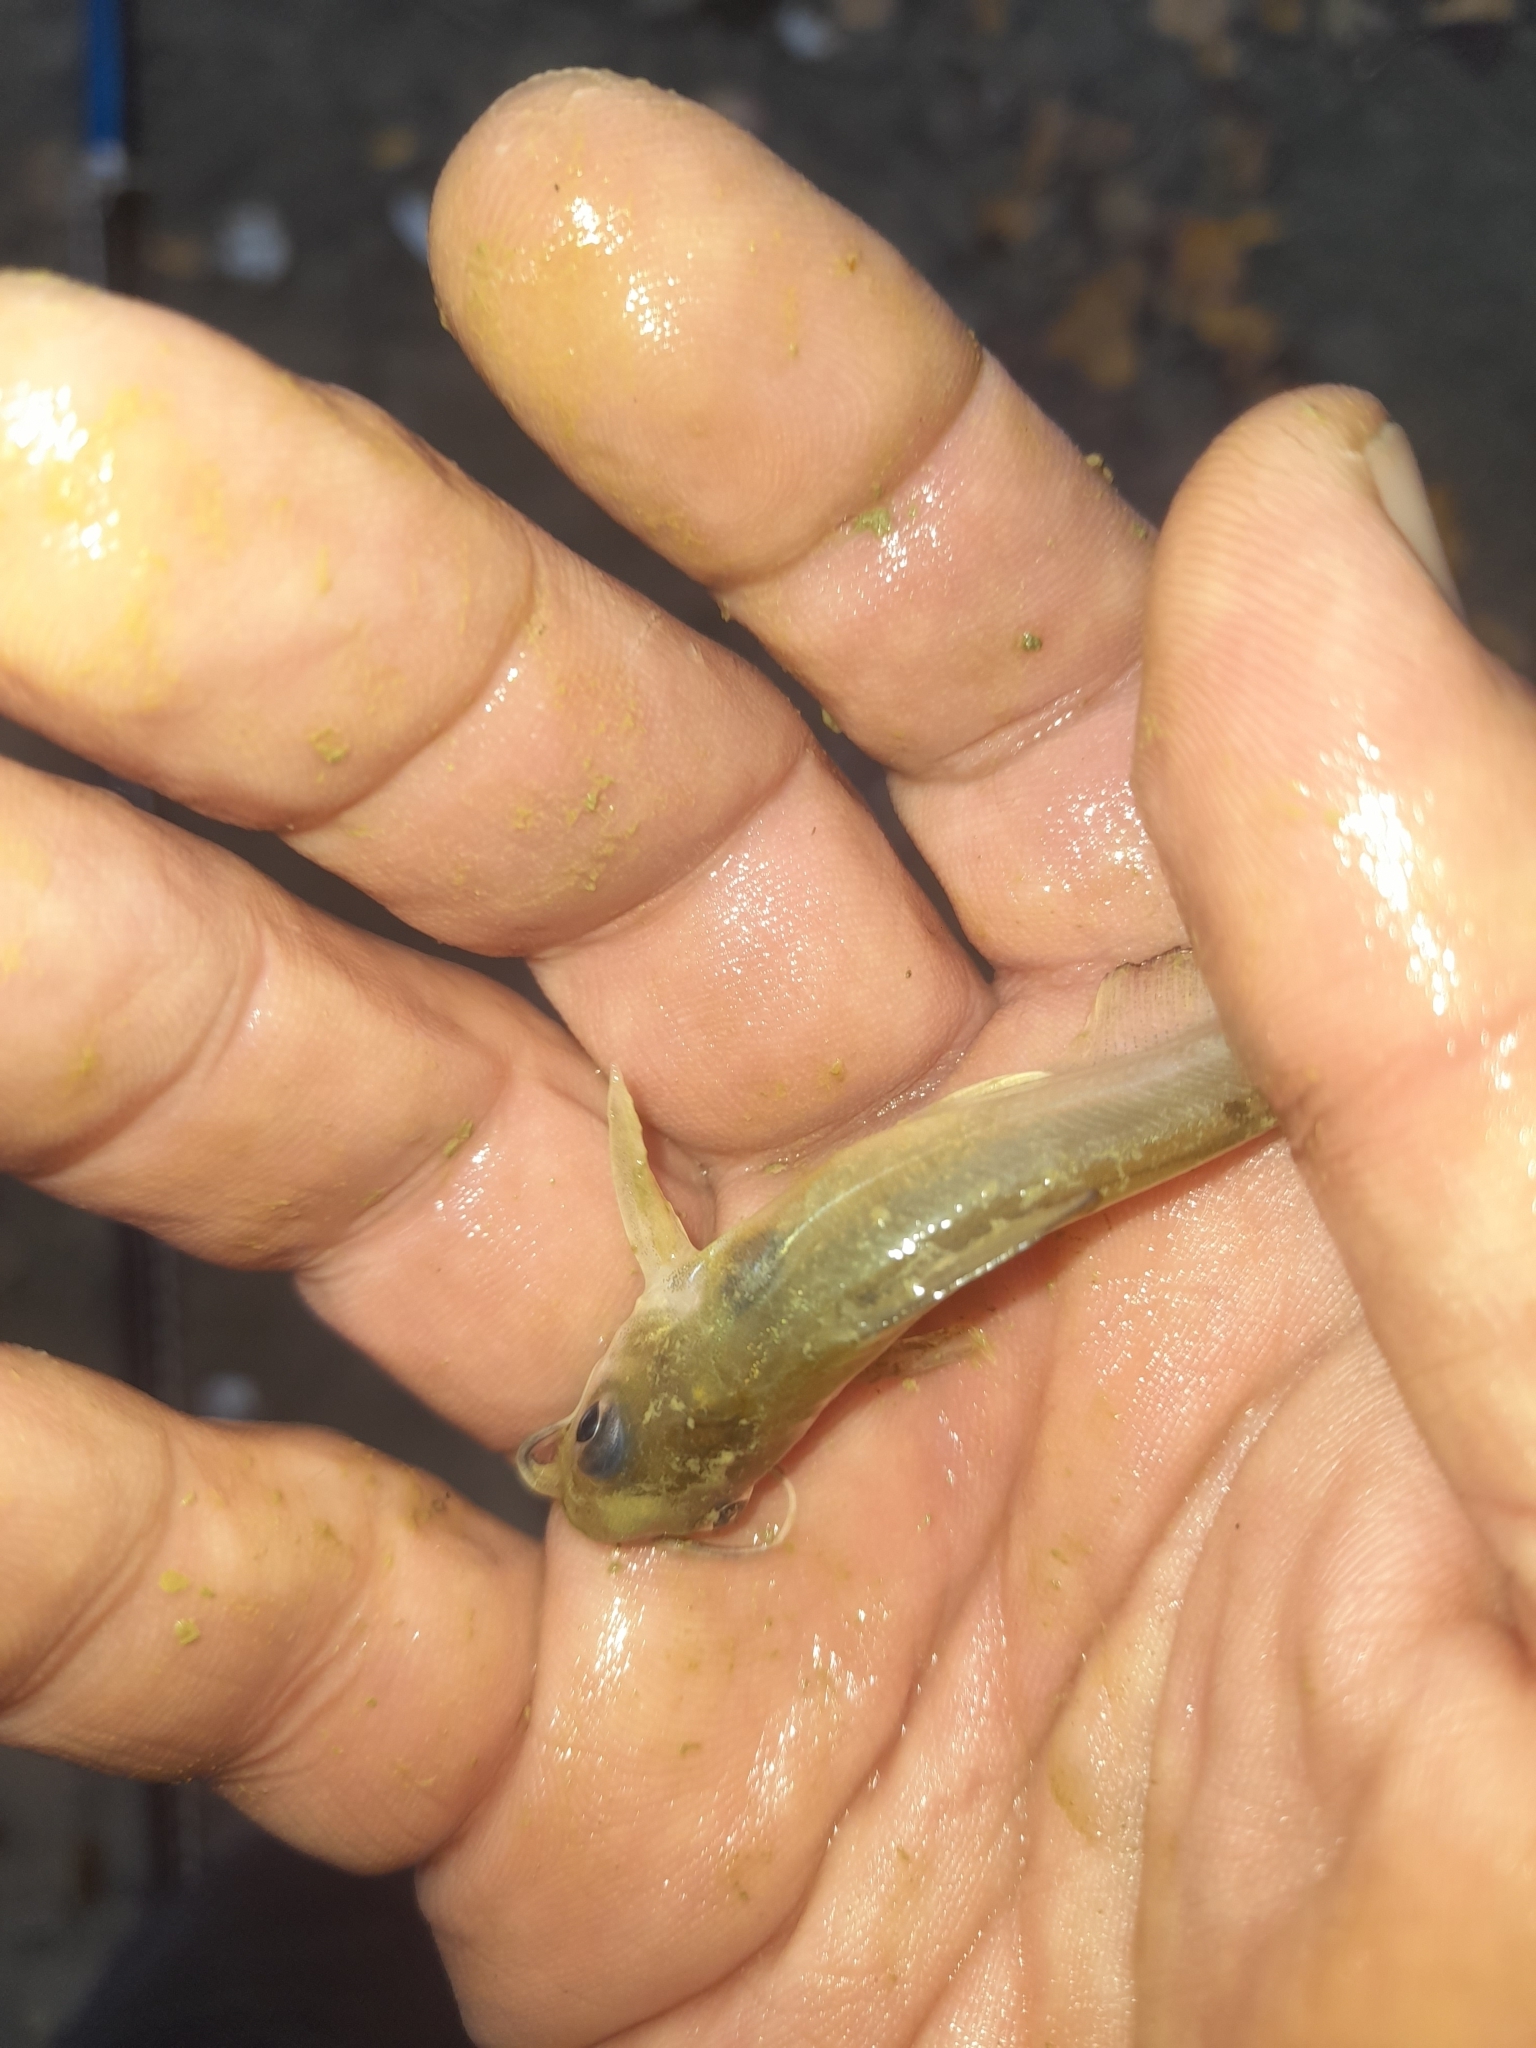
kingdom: Animalia
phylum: Chordata
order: Siluriformes
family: Ictaluridae
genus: Ictalurus
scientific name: Ictalurus punctatus
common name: Channel catfish
